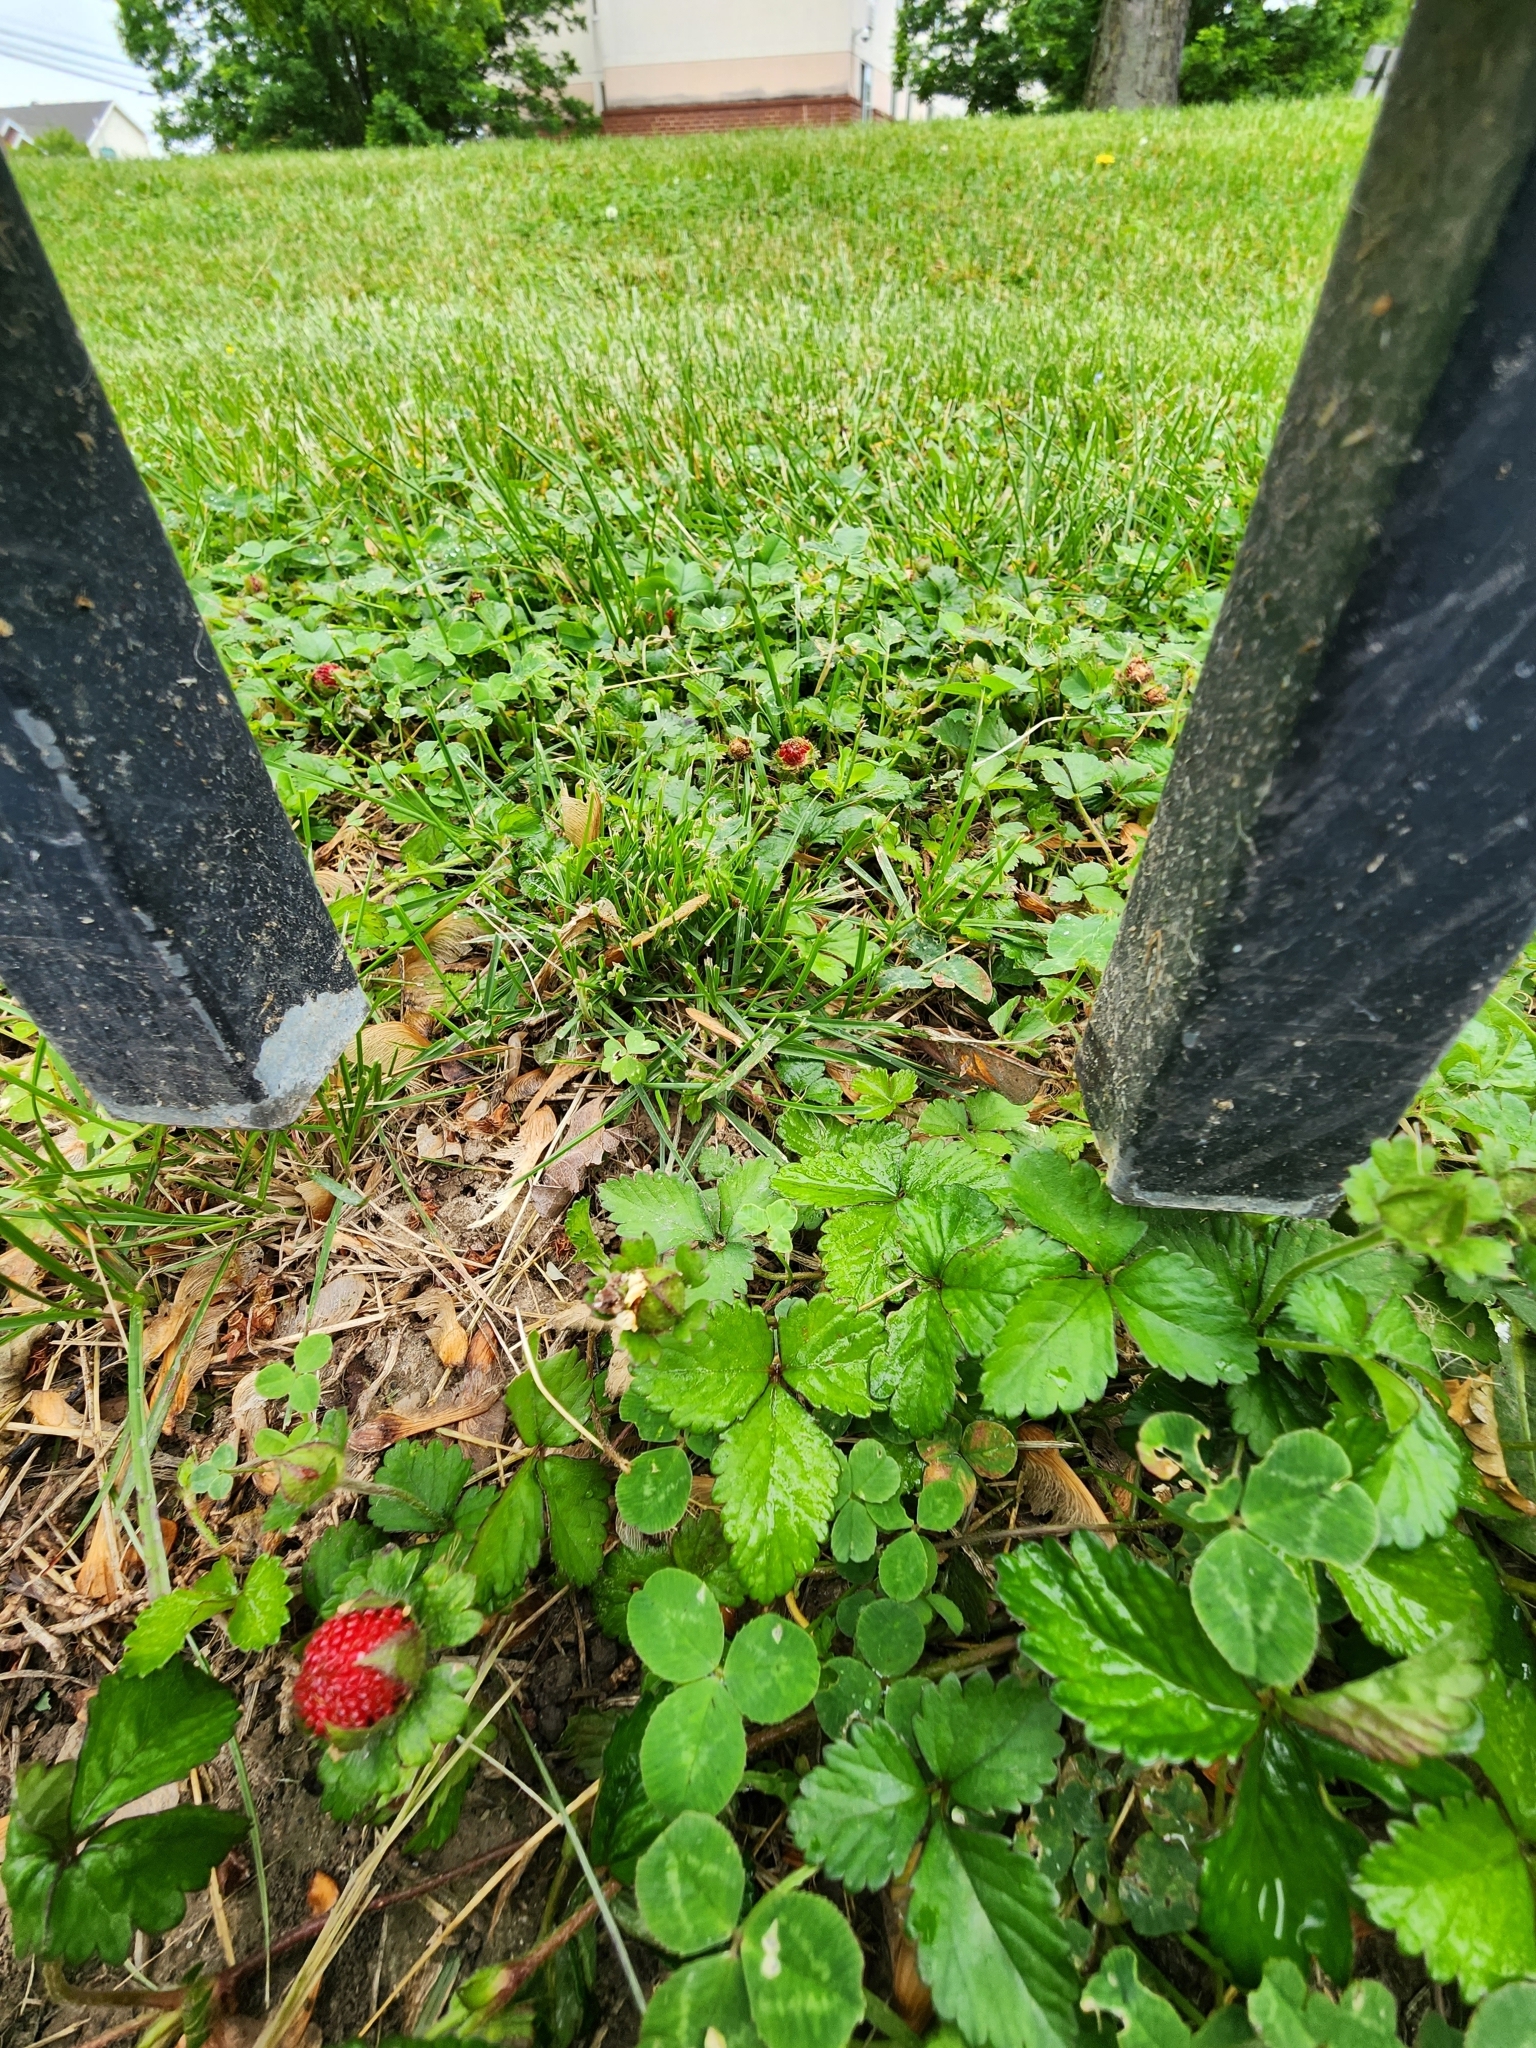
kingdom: Plantae
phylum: Tracheophyta
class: Magnoliopsida
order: Rosales
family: Rosaceae
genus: Potentilla
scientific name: Potentilla indica
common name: Yellow-flowered strawberry
